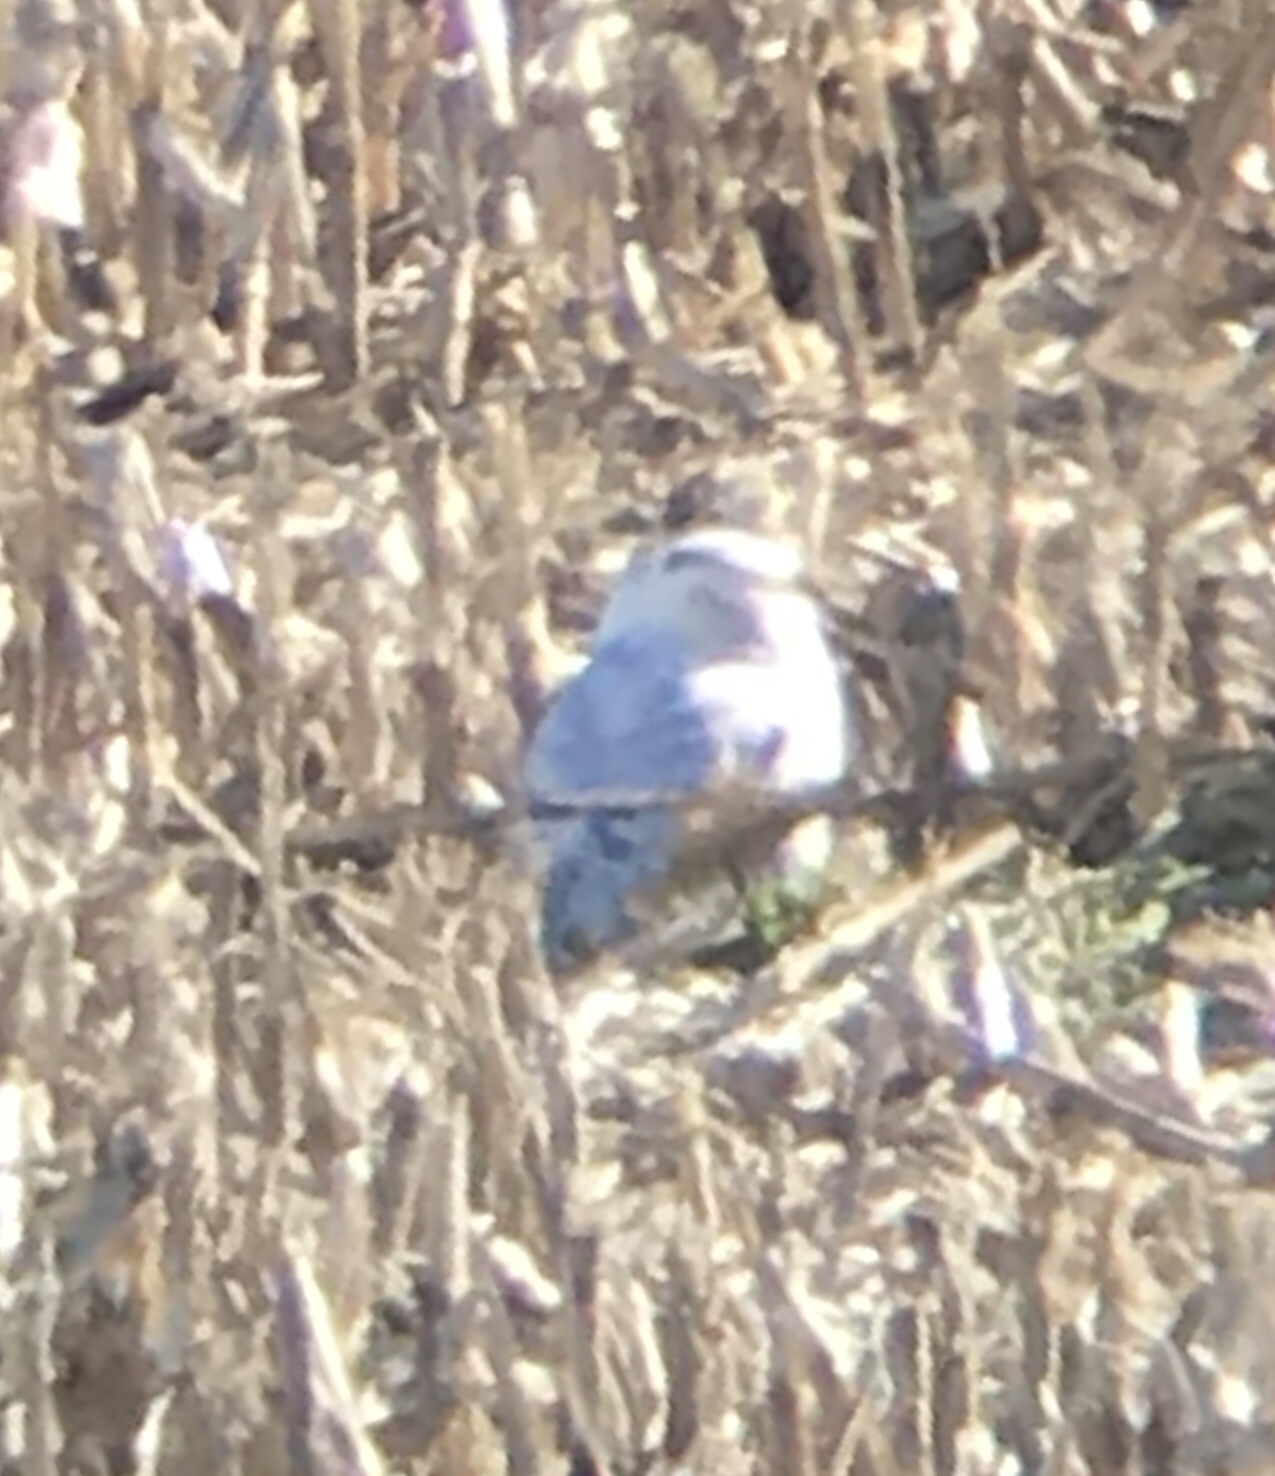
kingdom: Animalia
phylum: Chordata
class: Aves
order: Strigiformes
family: Strigidae
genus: Bubo
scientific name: Bubo scandiacus
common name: Snowy owl
